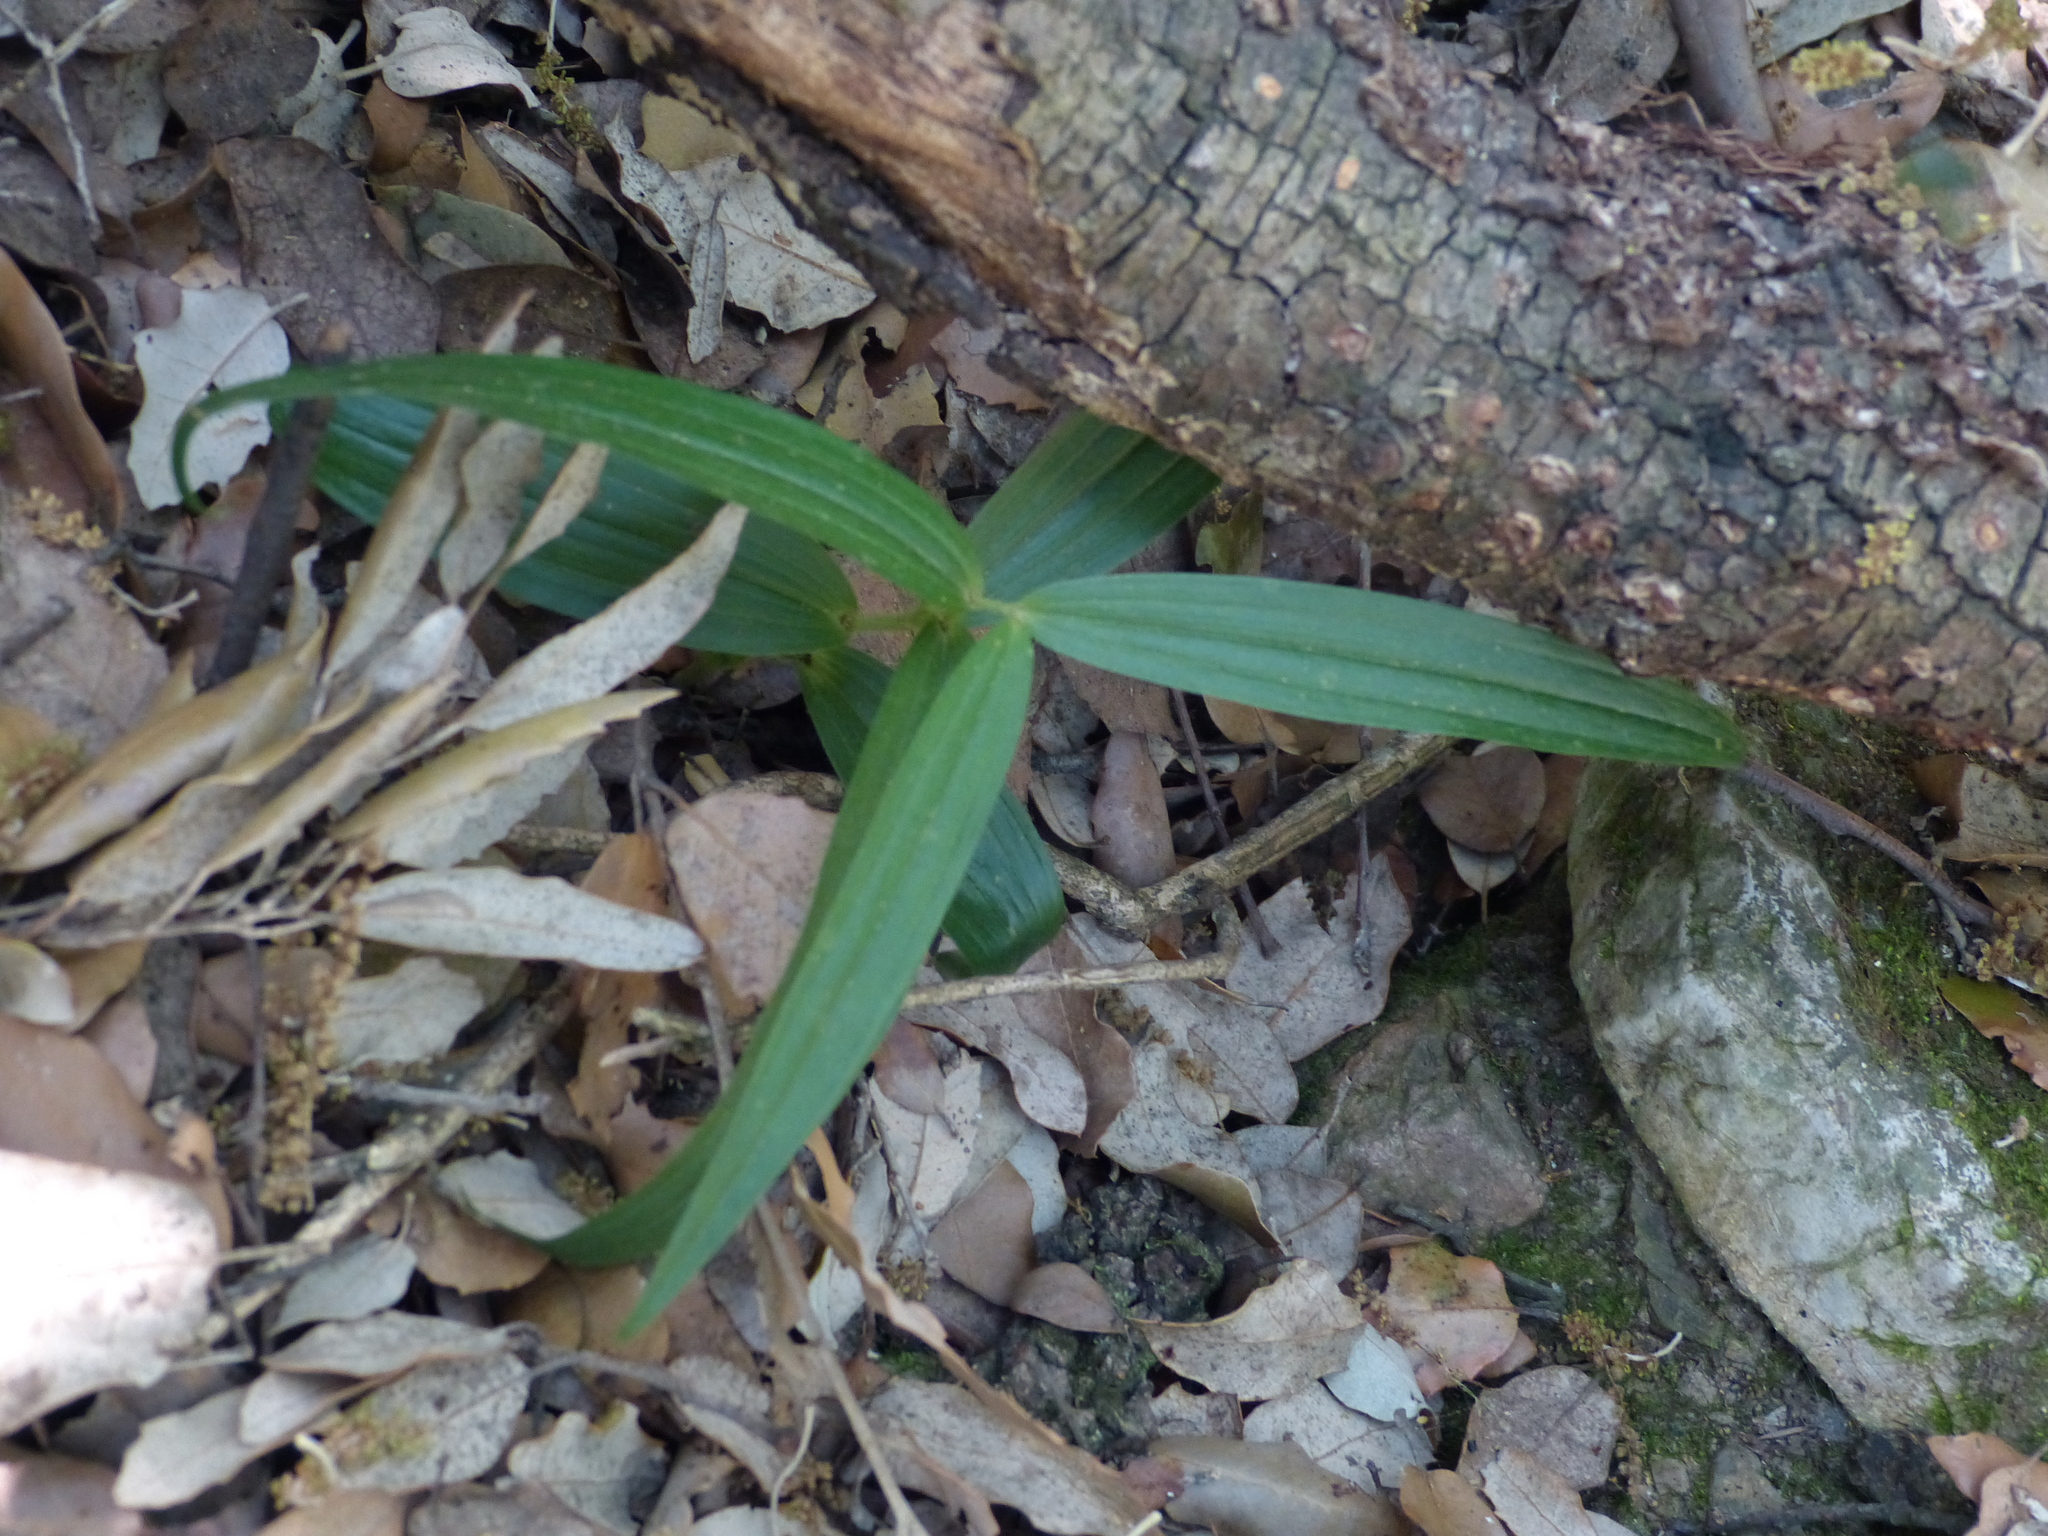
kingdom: Plantae
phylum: Tracheophyta
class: Liliopsida
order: Asparagales
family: Orchidaceae
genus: Cephalanthera
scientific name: Cephalanthera longifolia
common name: Narrow-leaved helleborine
